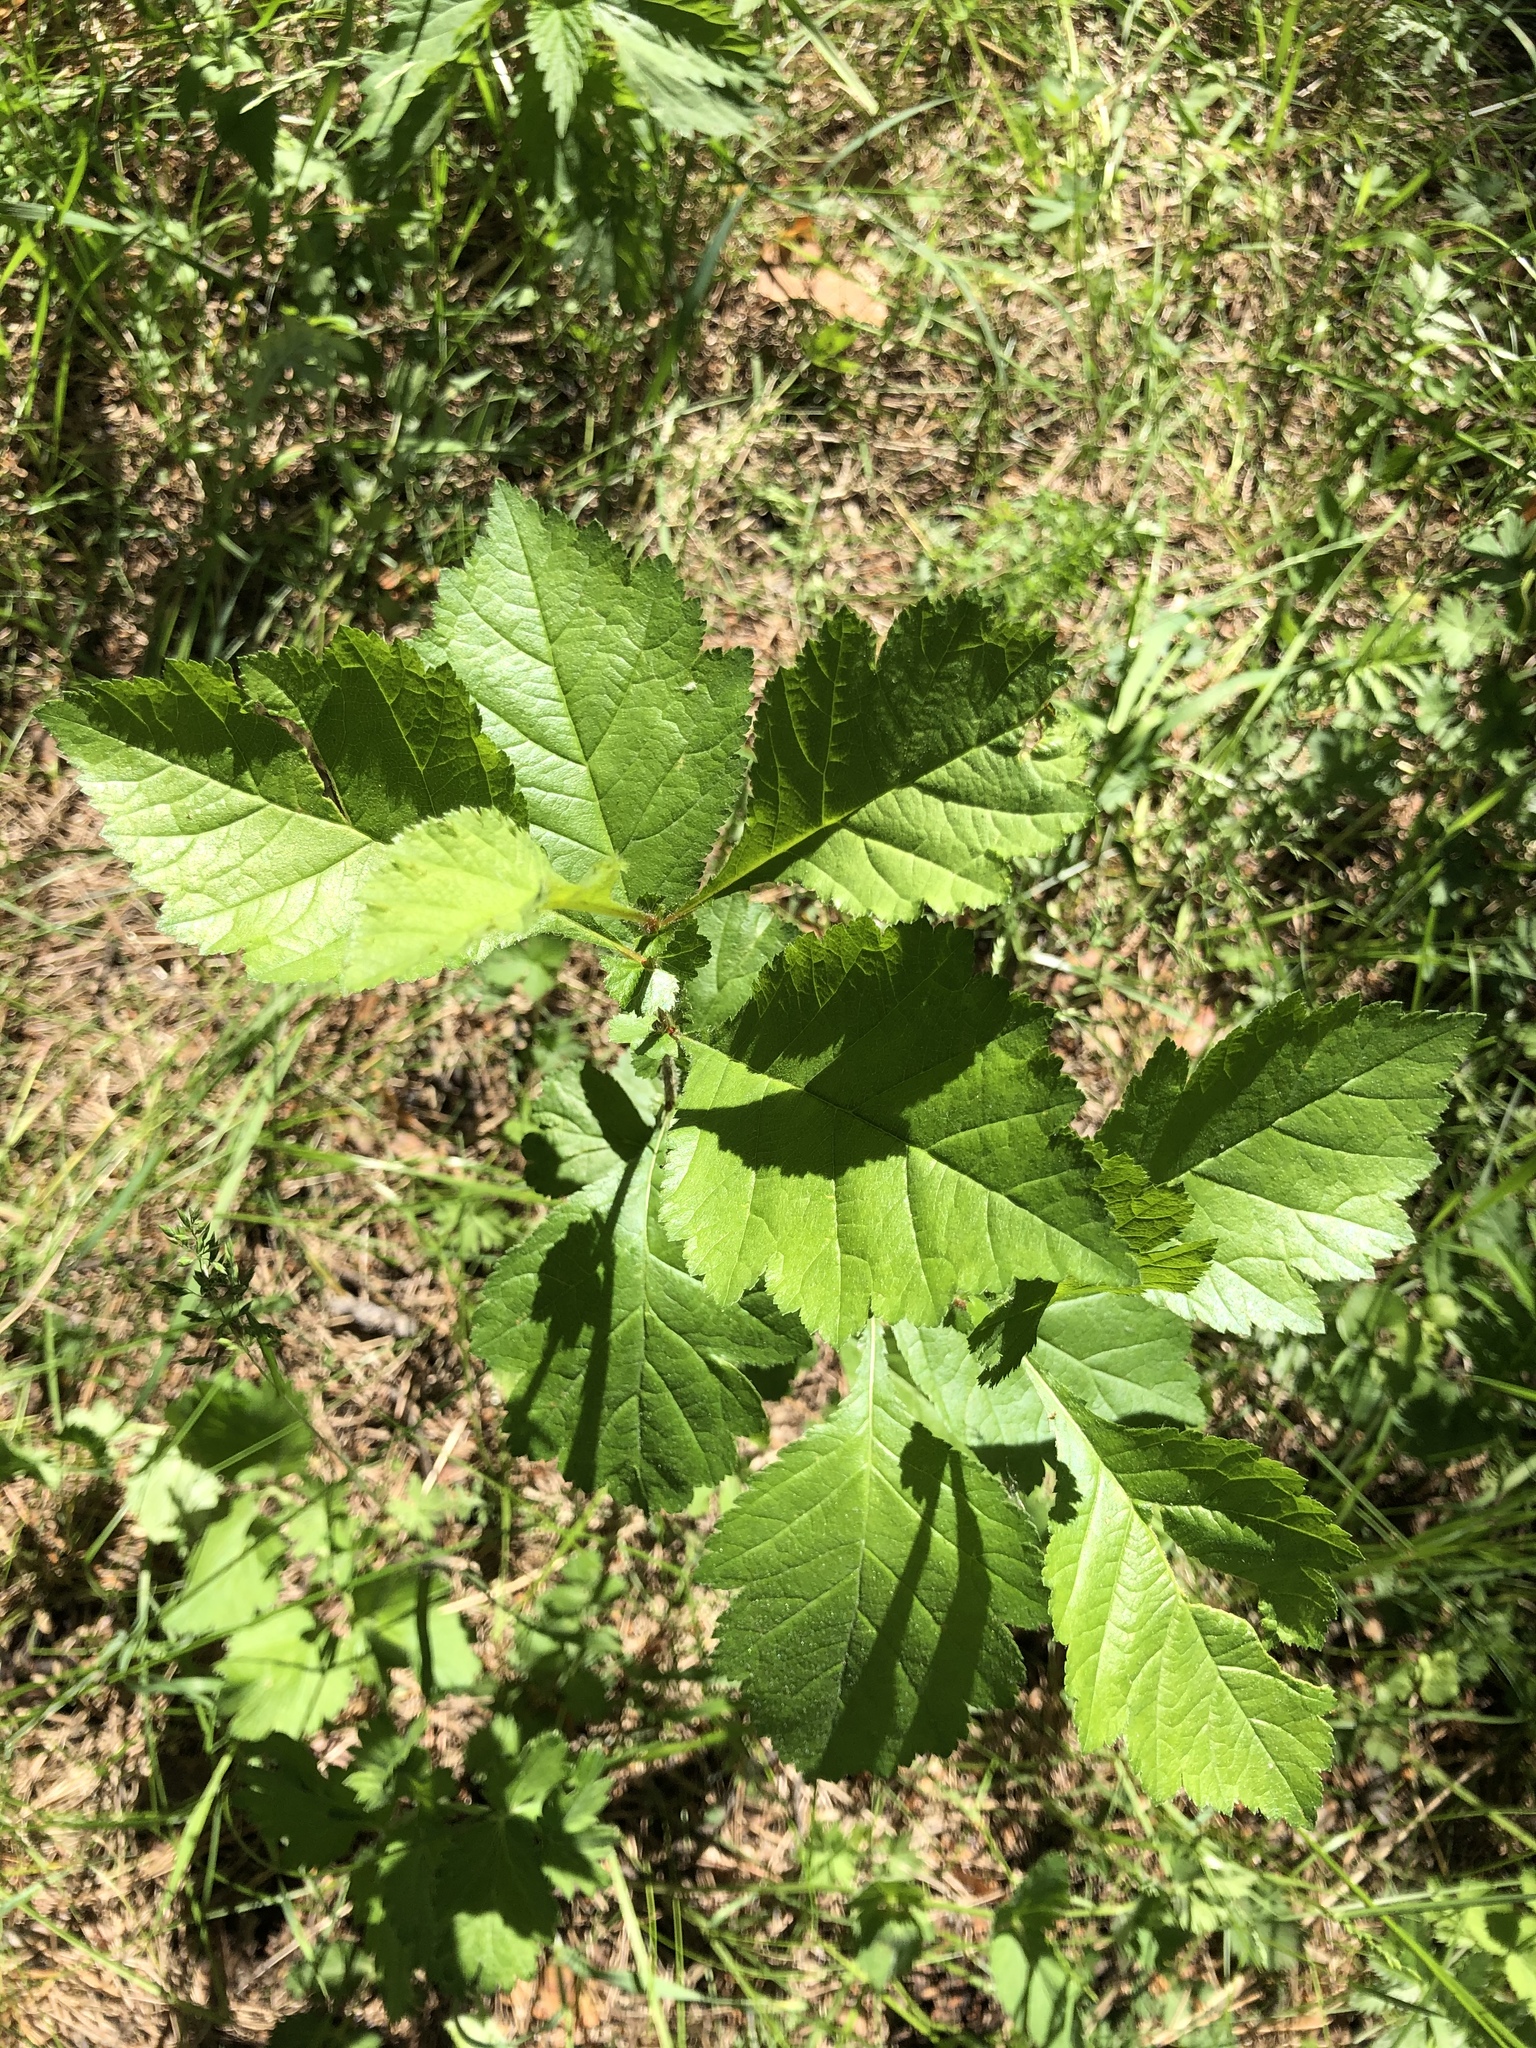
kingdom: Plantae
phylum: Tracheophyta
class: Magnoliopsida
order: Rosales
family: Rosaceae
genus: Crataegus
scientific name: Crataegus sanguinea
